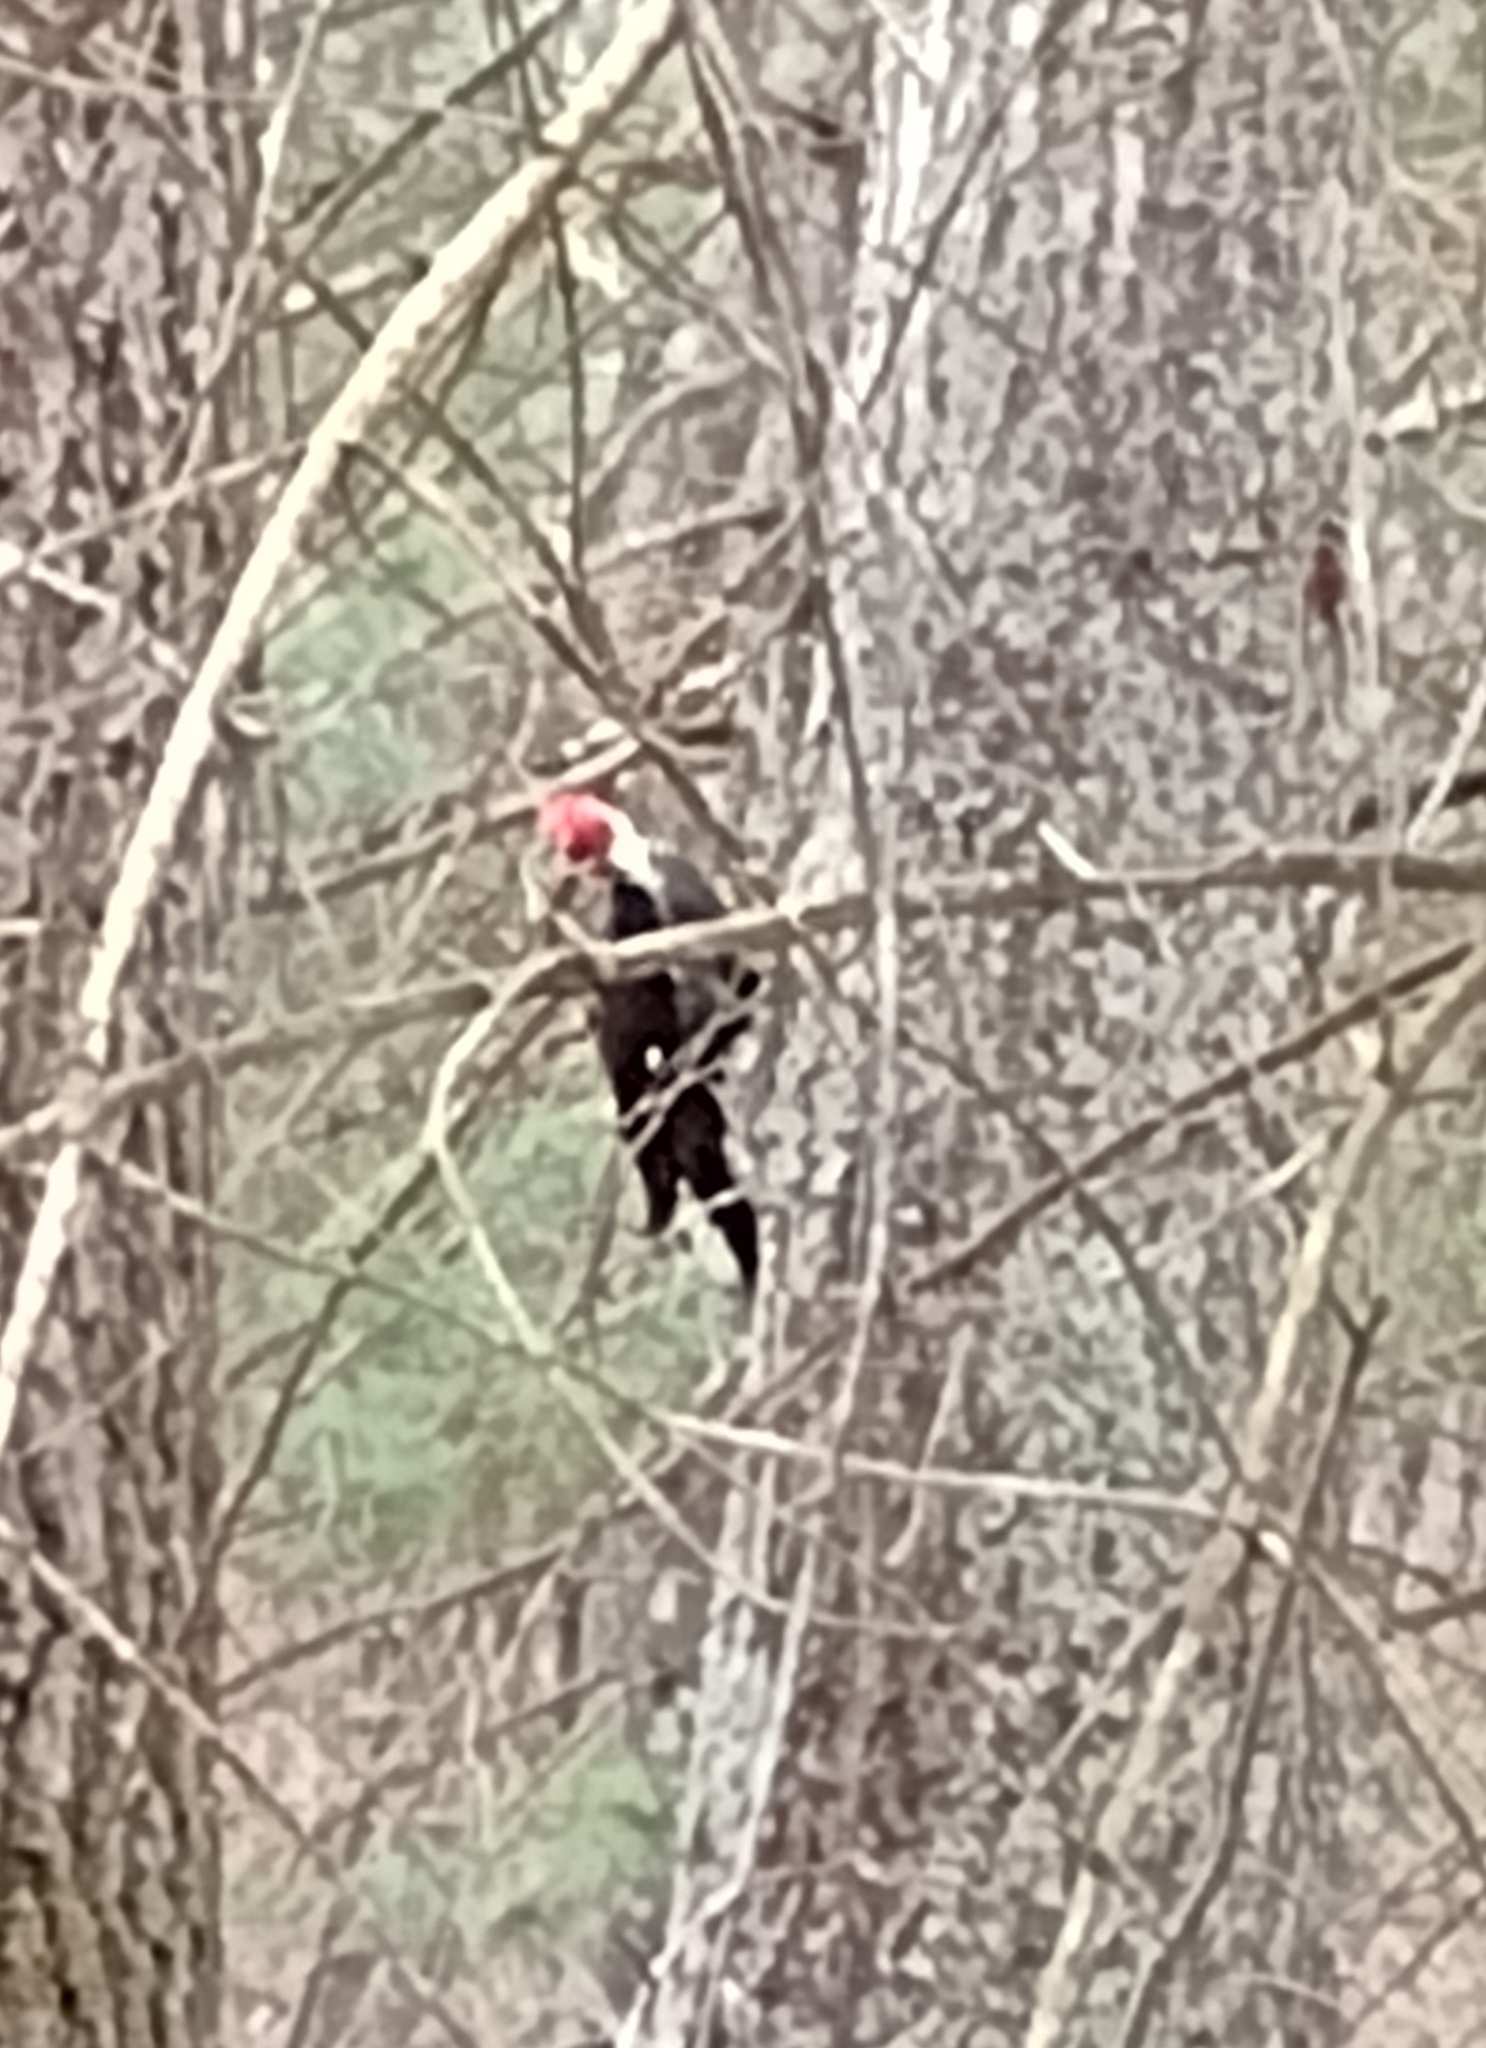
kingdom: Animalia
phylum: Chordata
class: Aves
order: Piciformes
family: Picidae
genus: Dryocopus
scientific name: Dryocopus pileatus
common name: Pileated woodpecker
